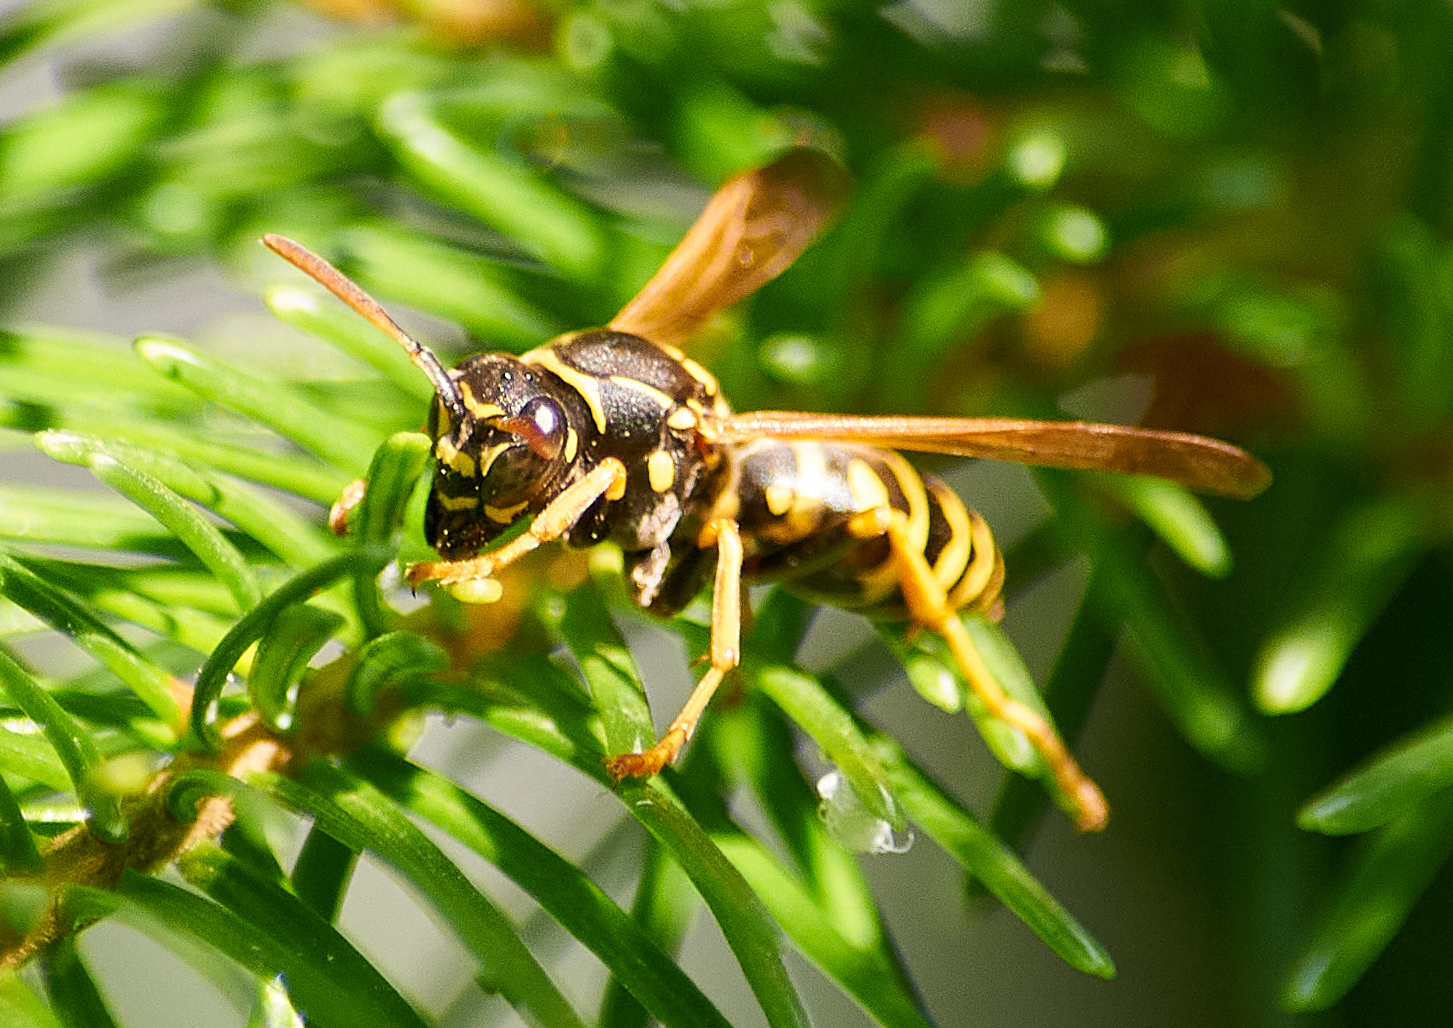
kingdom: Animalia
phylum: Arthropoda
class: Insecta
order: Hymenoptera
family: Eumenidae
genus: Polistes
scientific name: Polistes nimpha
